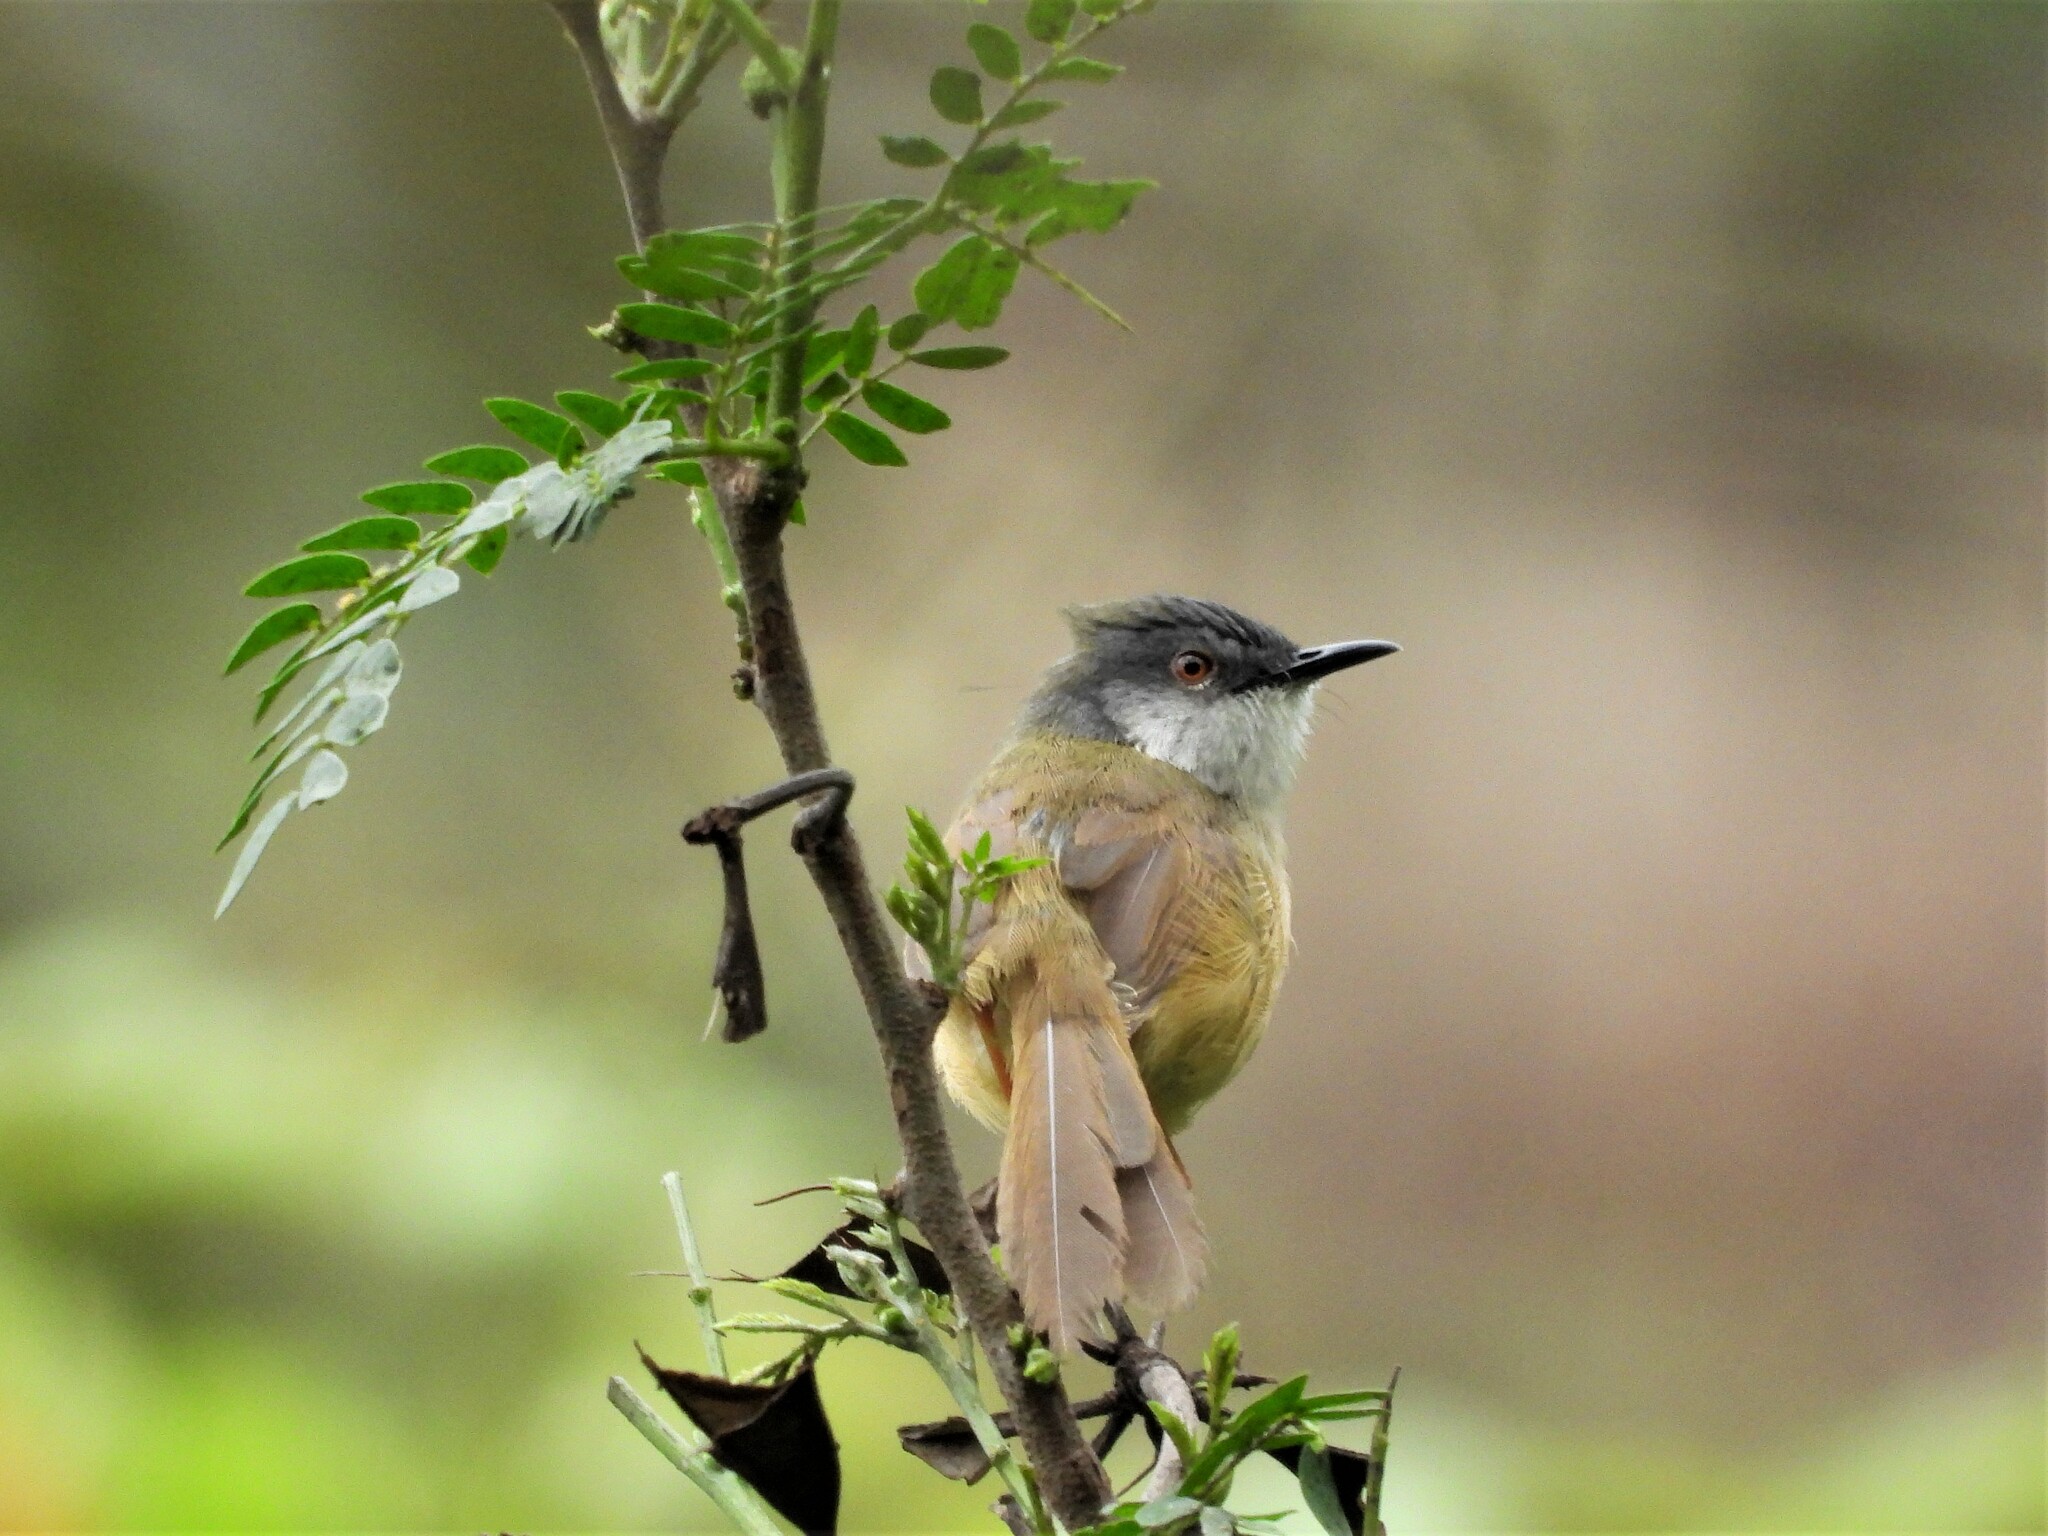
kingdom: Animalia
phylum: Chordata
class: Aves
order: Passeriformes
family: Cisticolidae
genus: Prinia
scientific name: Prinia flaviventris
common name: Yellow-bellied prinia
